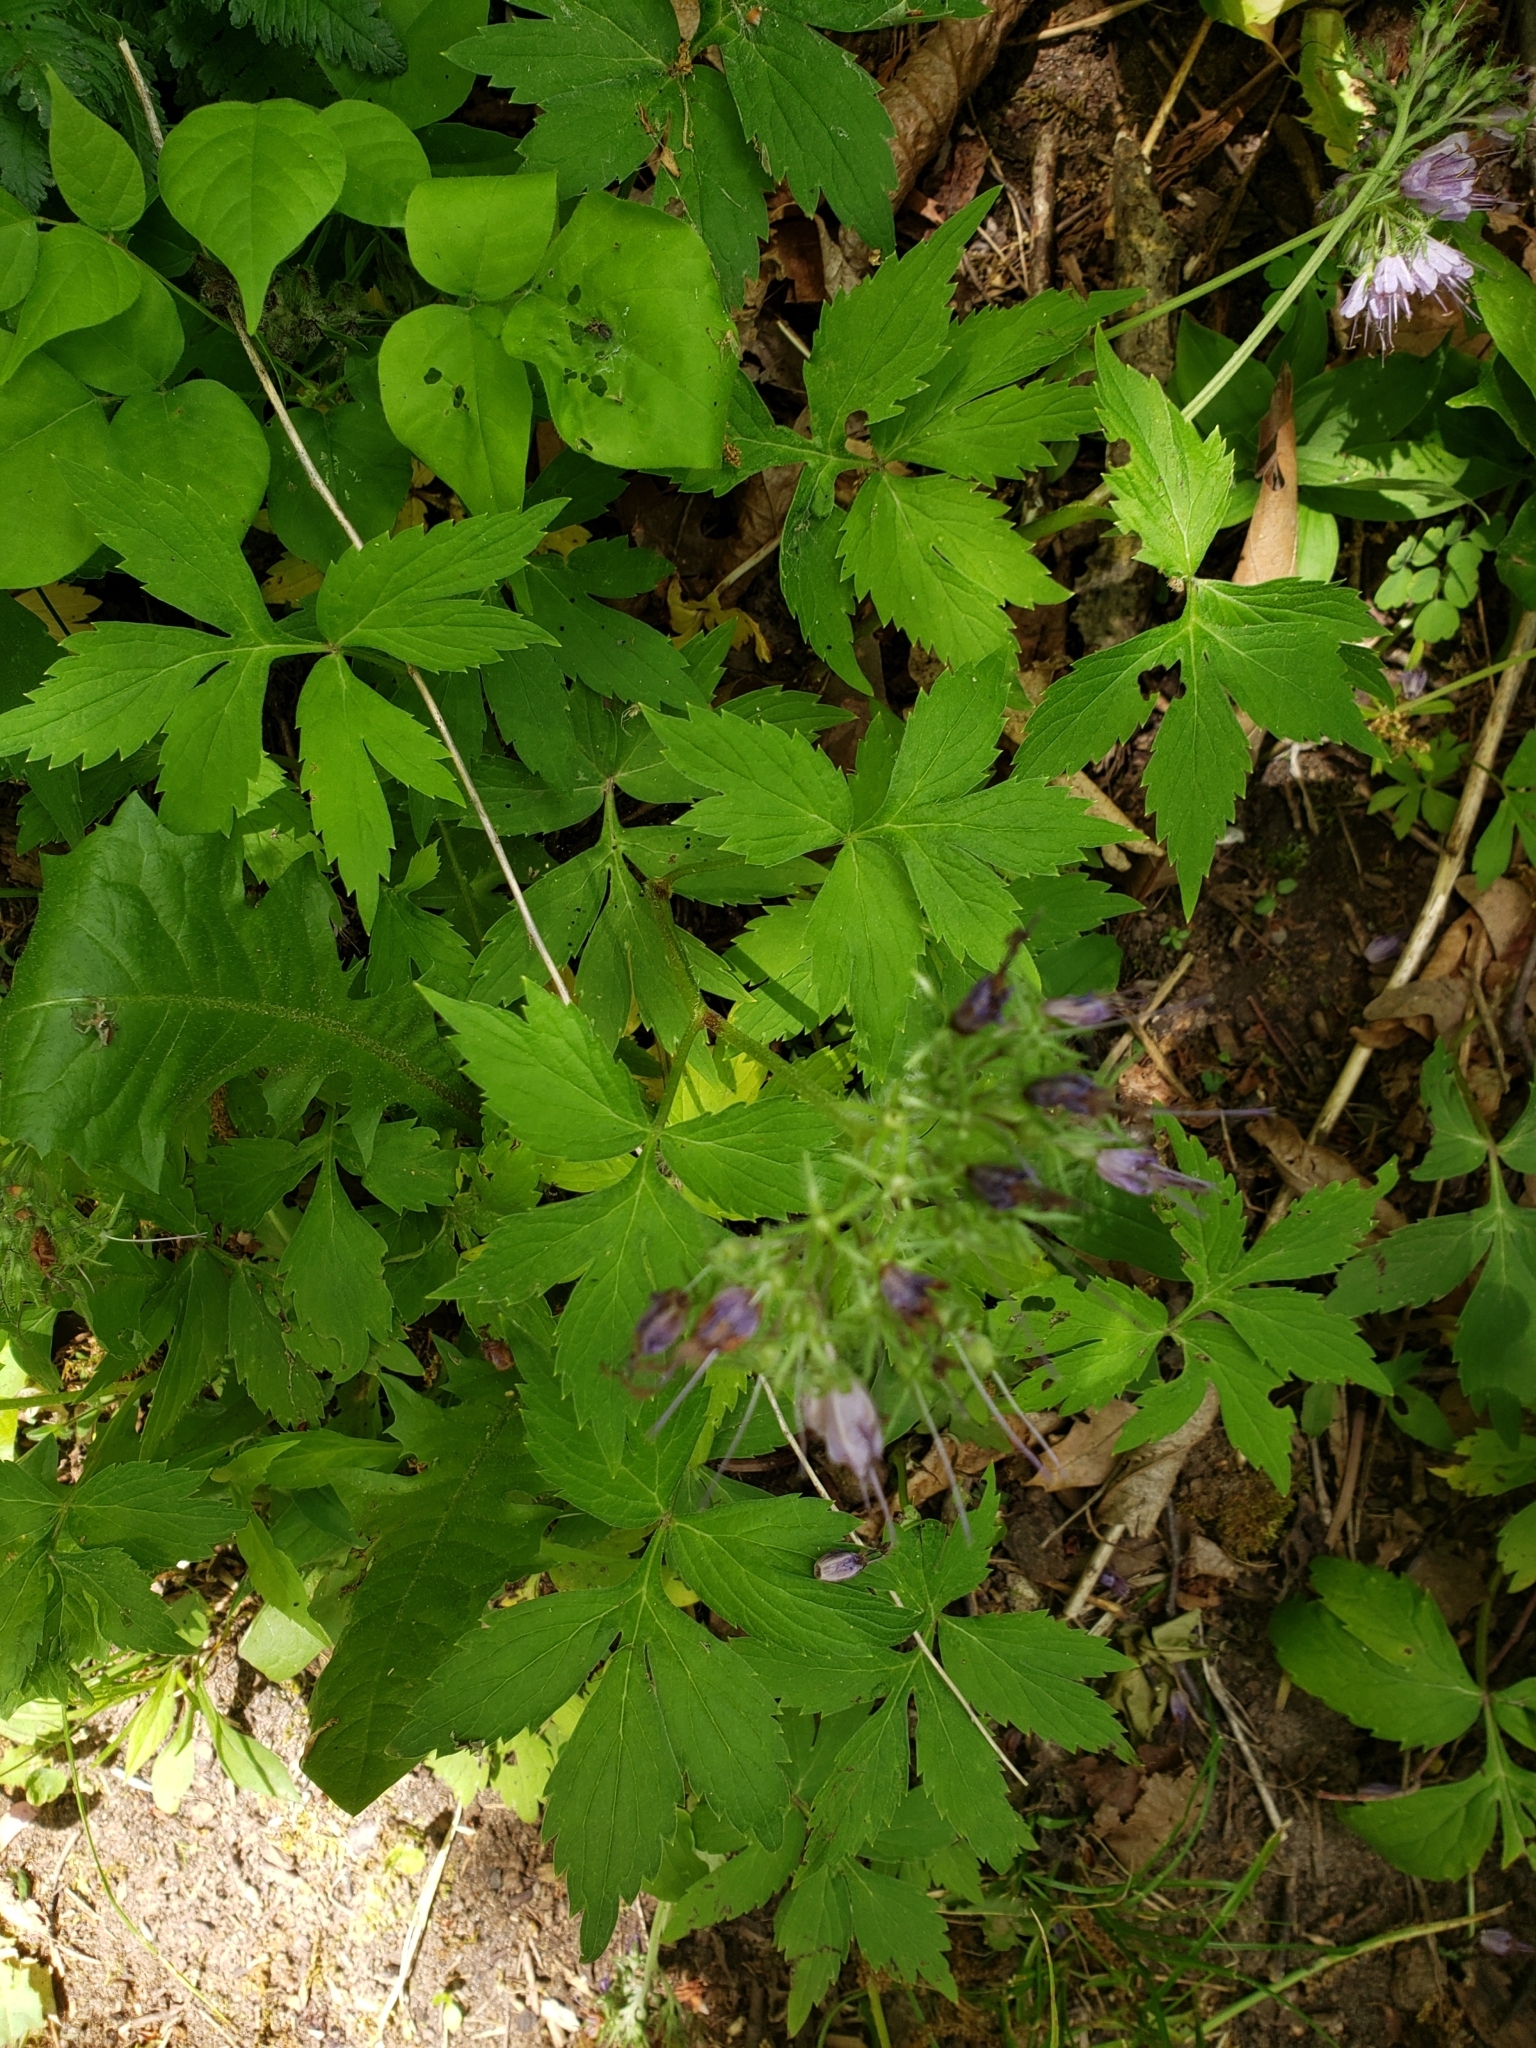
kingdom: Plantae
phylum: Tracheophyta
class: Magnoliopsida
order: Boraginales
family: Hydrophyllaceae
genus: Hydrophyllum
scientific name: Hydrophyllum virginianum
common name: Virginia waterleaf
